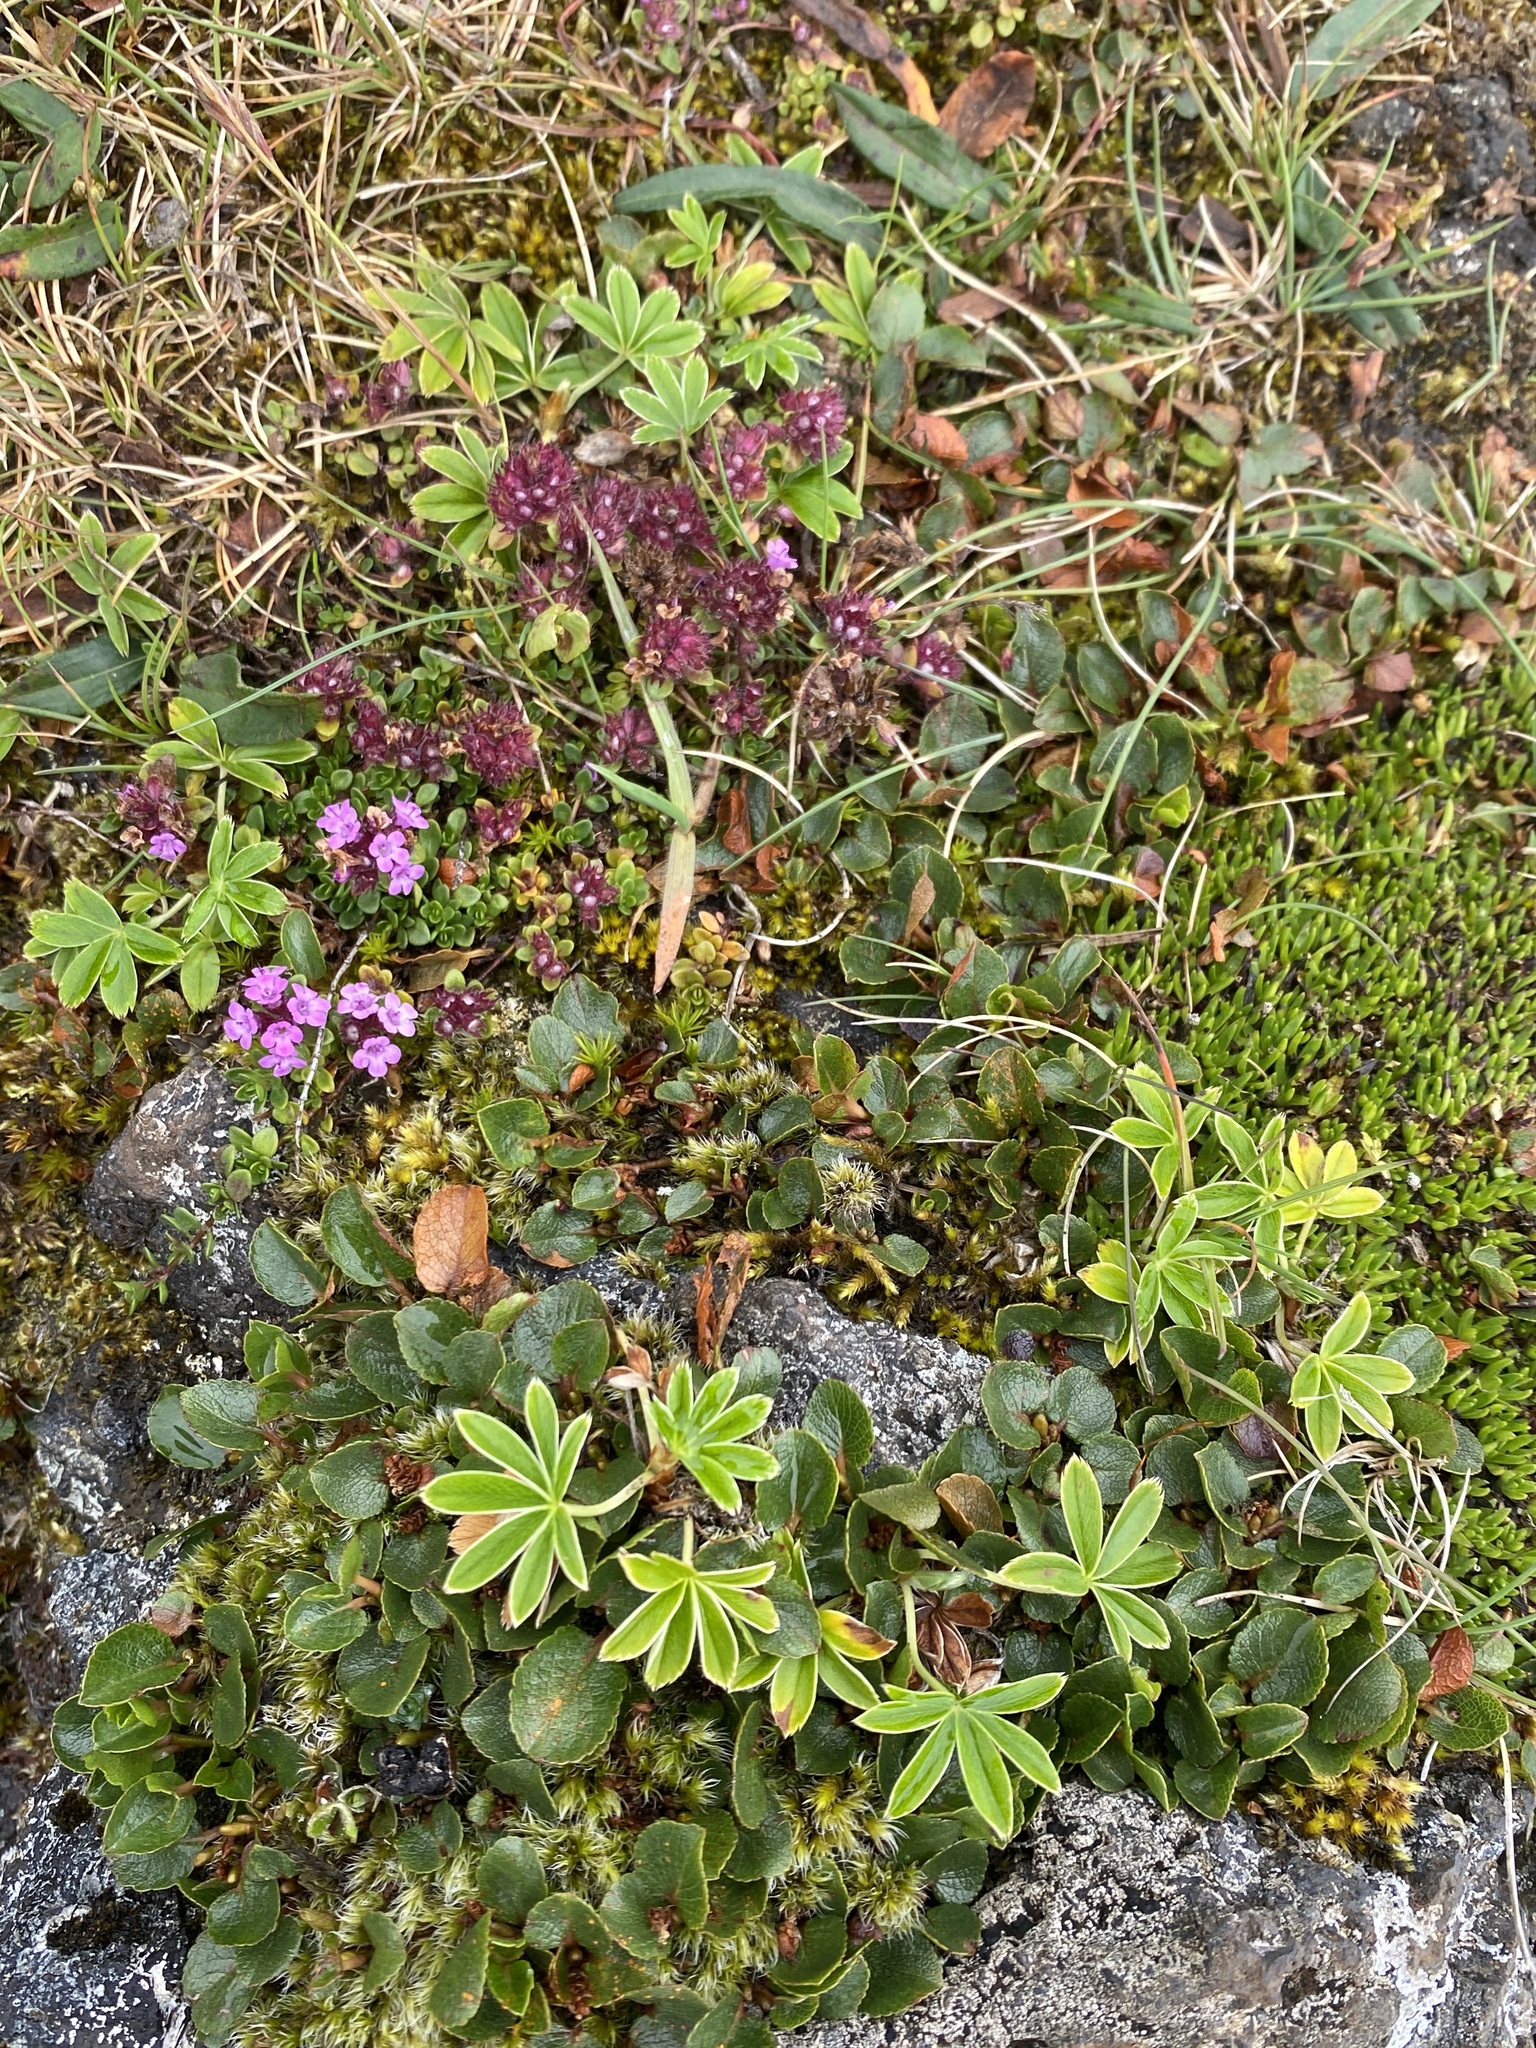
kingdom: Plantae
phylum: Tracheophyta
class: Magnoliopsida
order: Malpighiales
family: Salicaceae
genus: Salix
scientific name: Salix herbacea
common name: Dwarf willow
